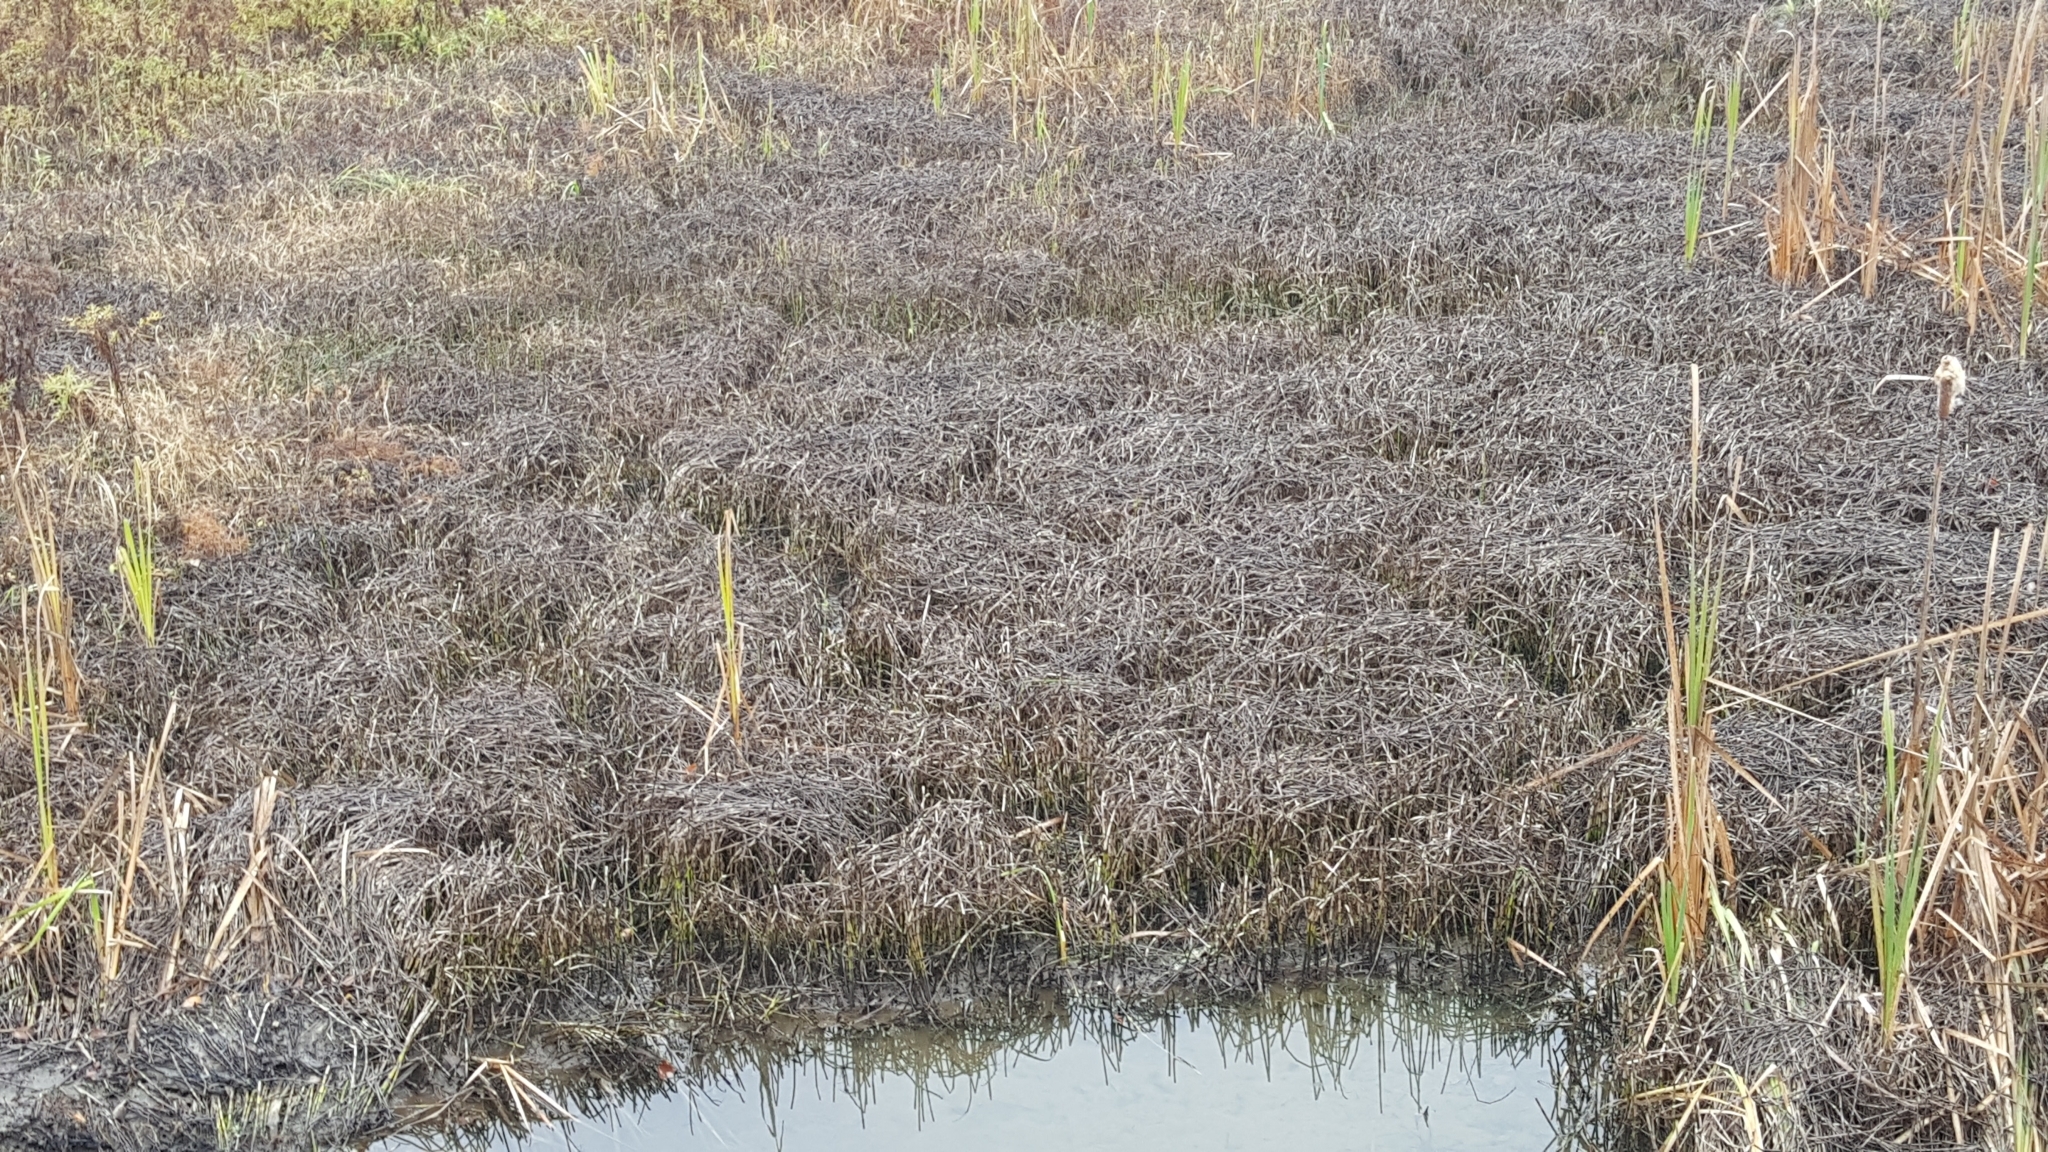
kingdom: Plantae
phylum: Tracheophyta
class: Polypodiopsida
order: Equisetales
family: Equisetaceae
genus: Equisetum
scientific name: Equisetum fluviatile
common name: Water horsetail
